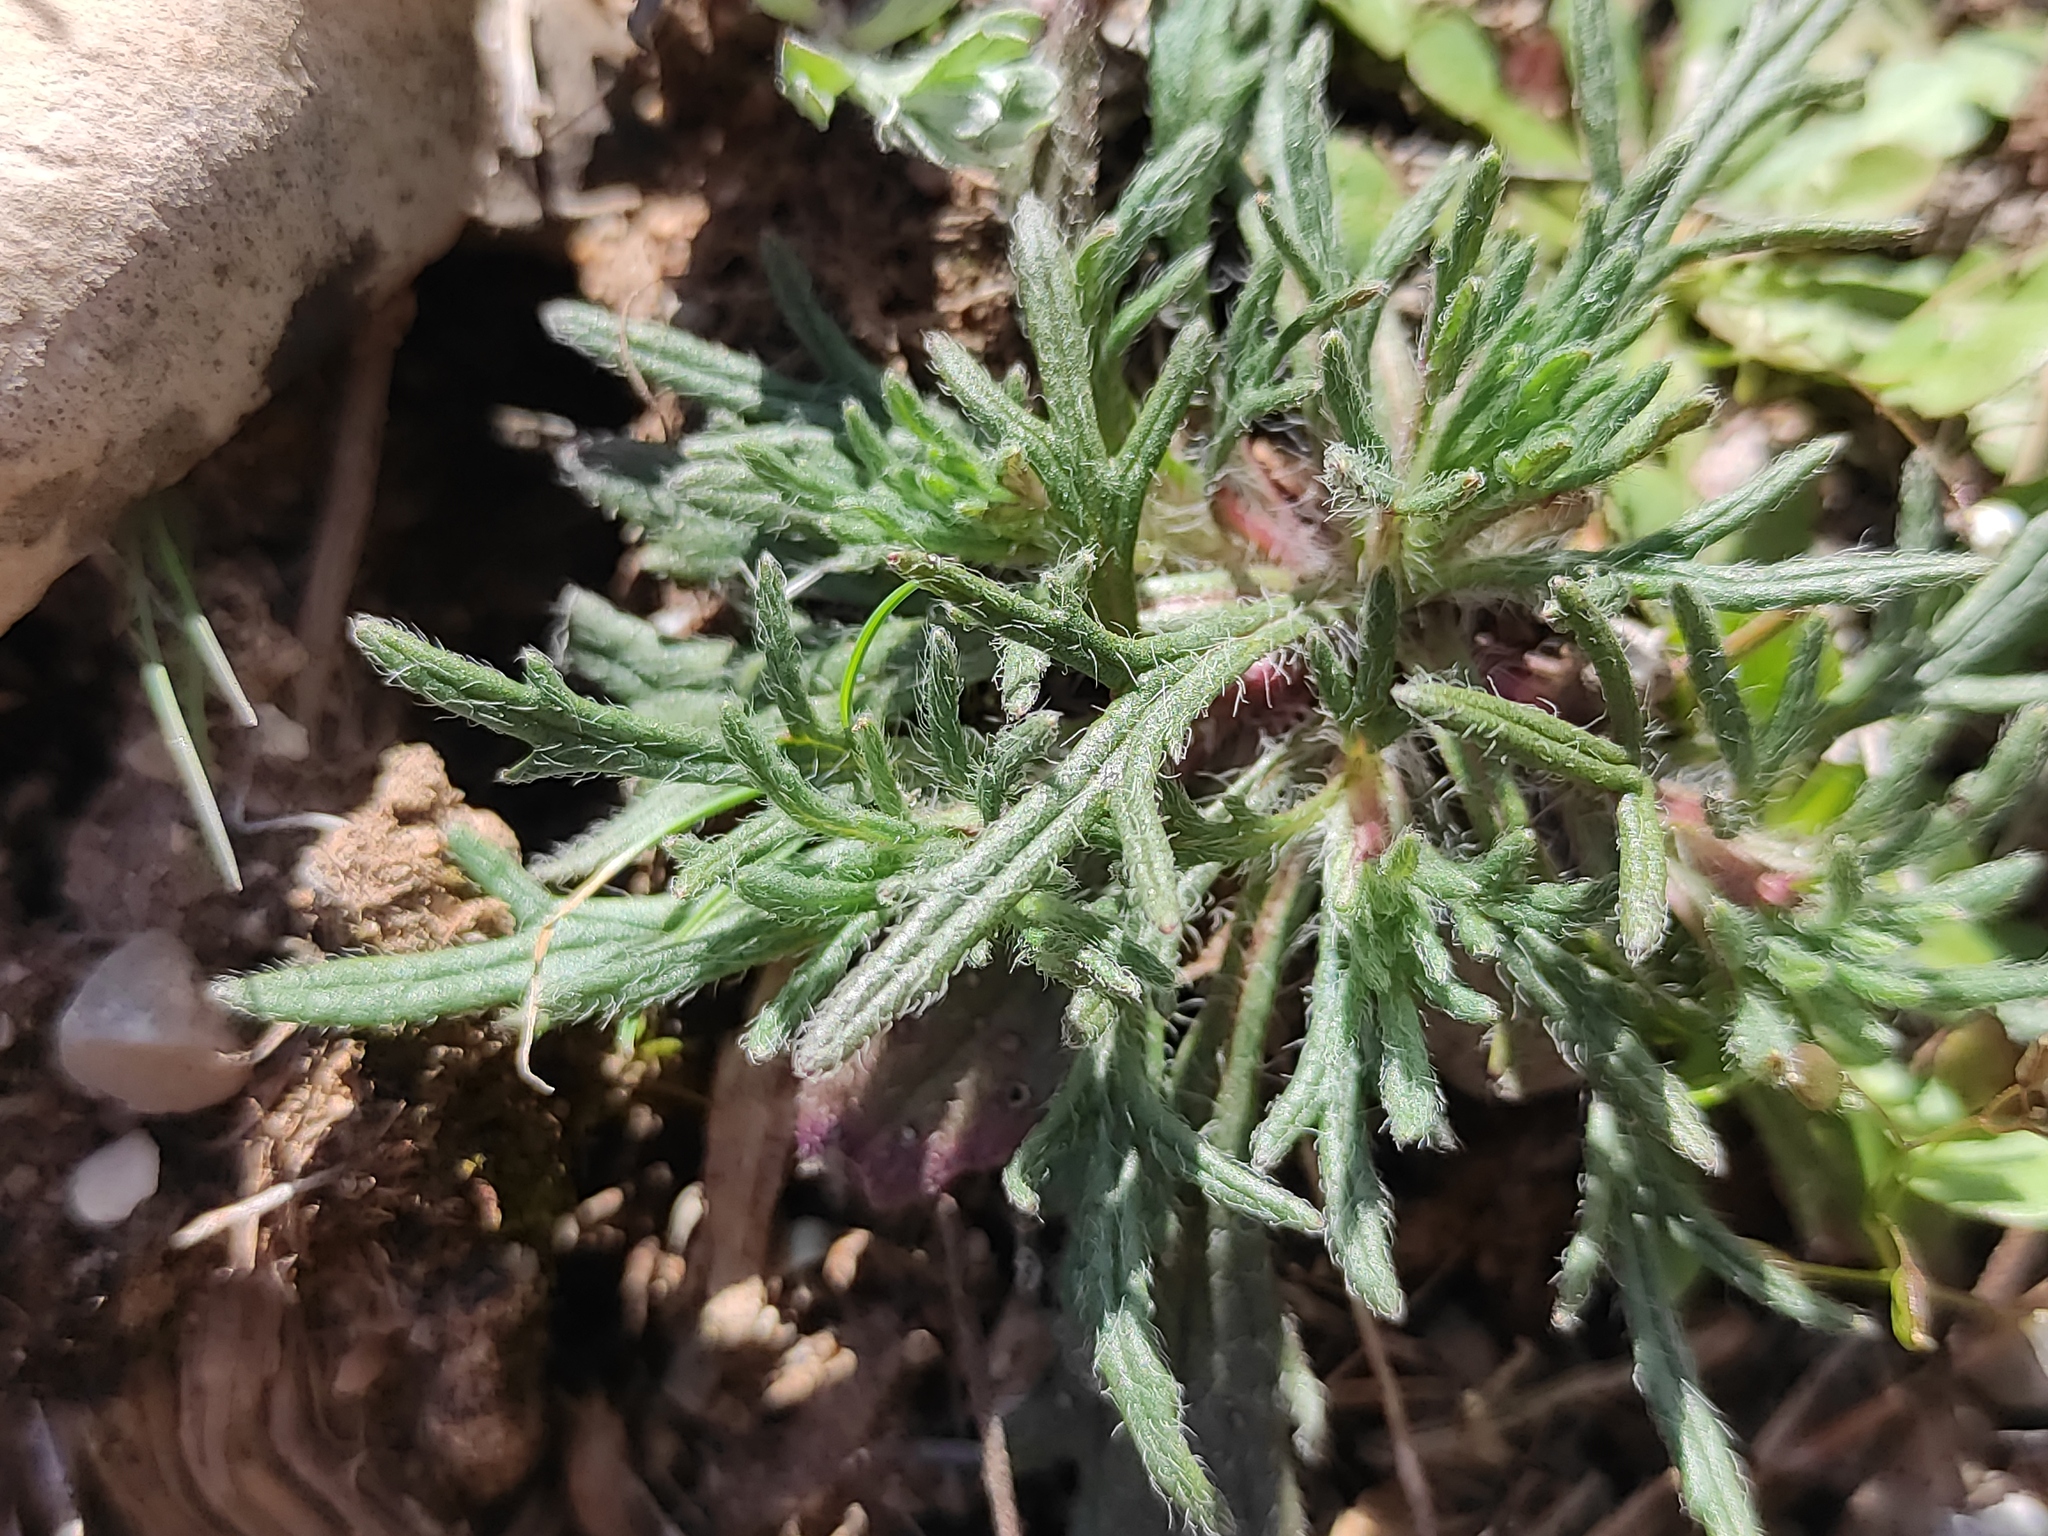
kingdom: Plantae
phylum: Tracheophyta
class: Magnoliopsida
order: Lamiales
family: Lamiaceae
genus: Ajuga
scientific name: Ajuga chamaepitys
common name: Ground-pine
